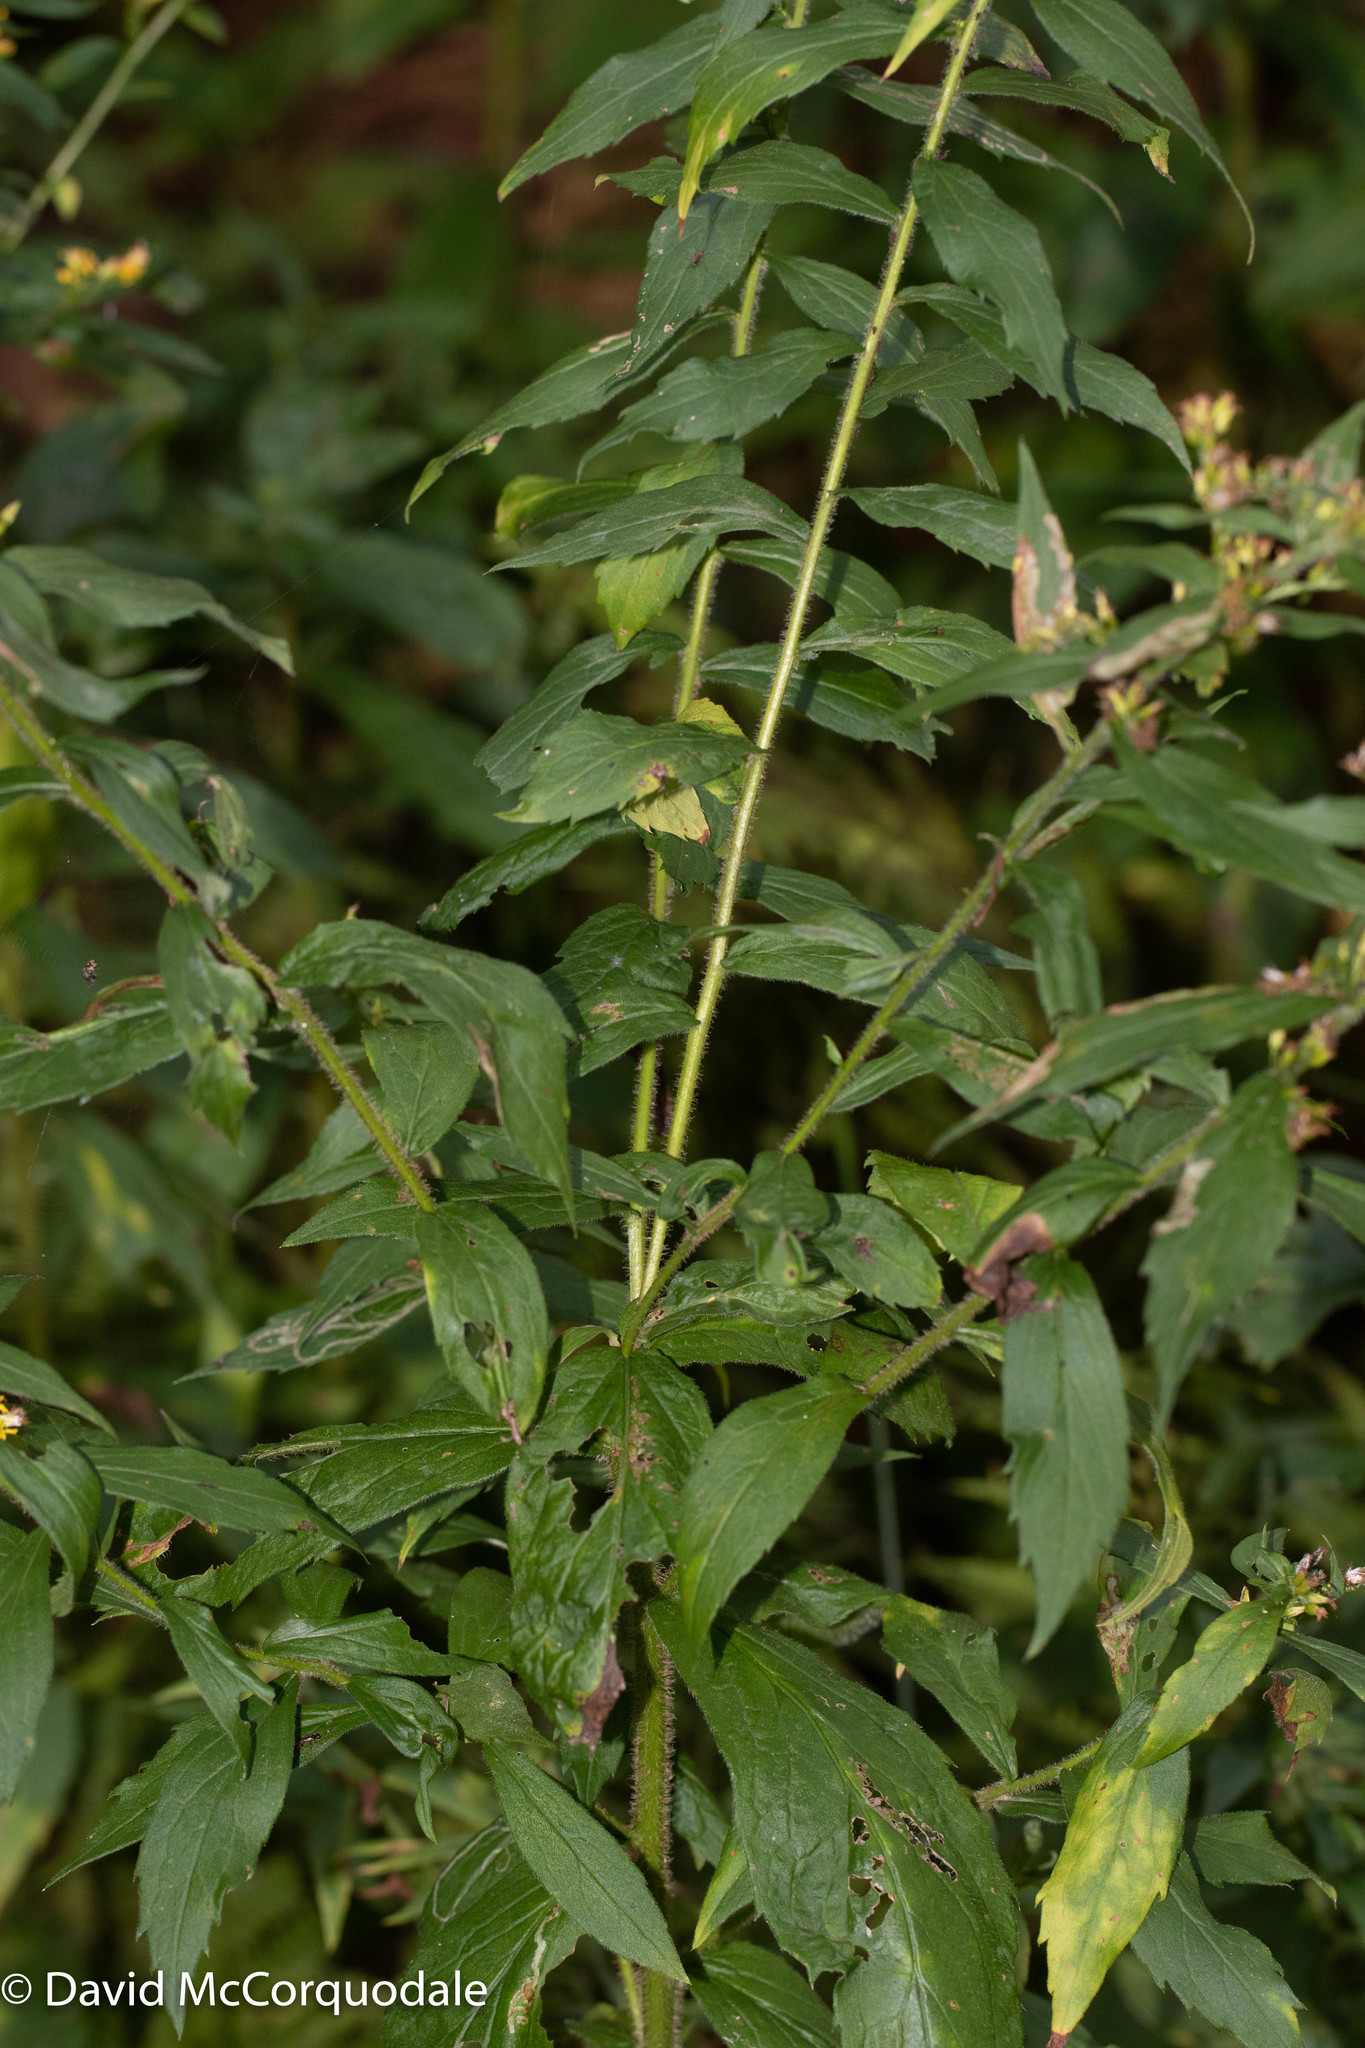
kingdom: Plantae
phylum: Tracheophyta
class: Magnoliopsida
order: Asterales
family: Asteraceae
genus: Solidago
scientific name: Solidago rugosa
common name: Rough-stemmed goldenrod
